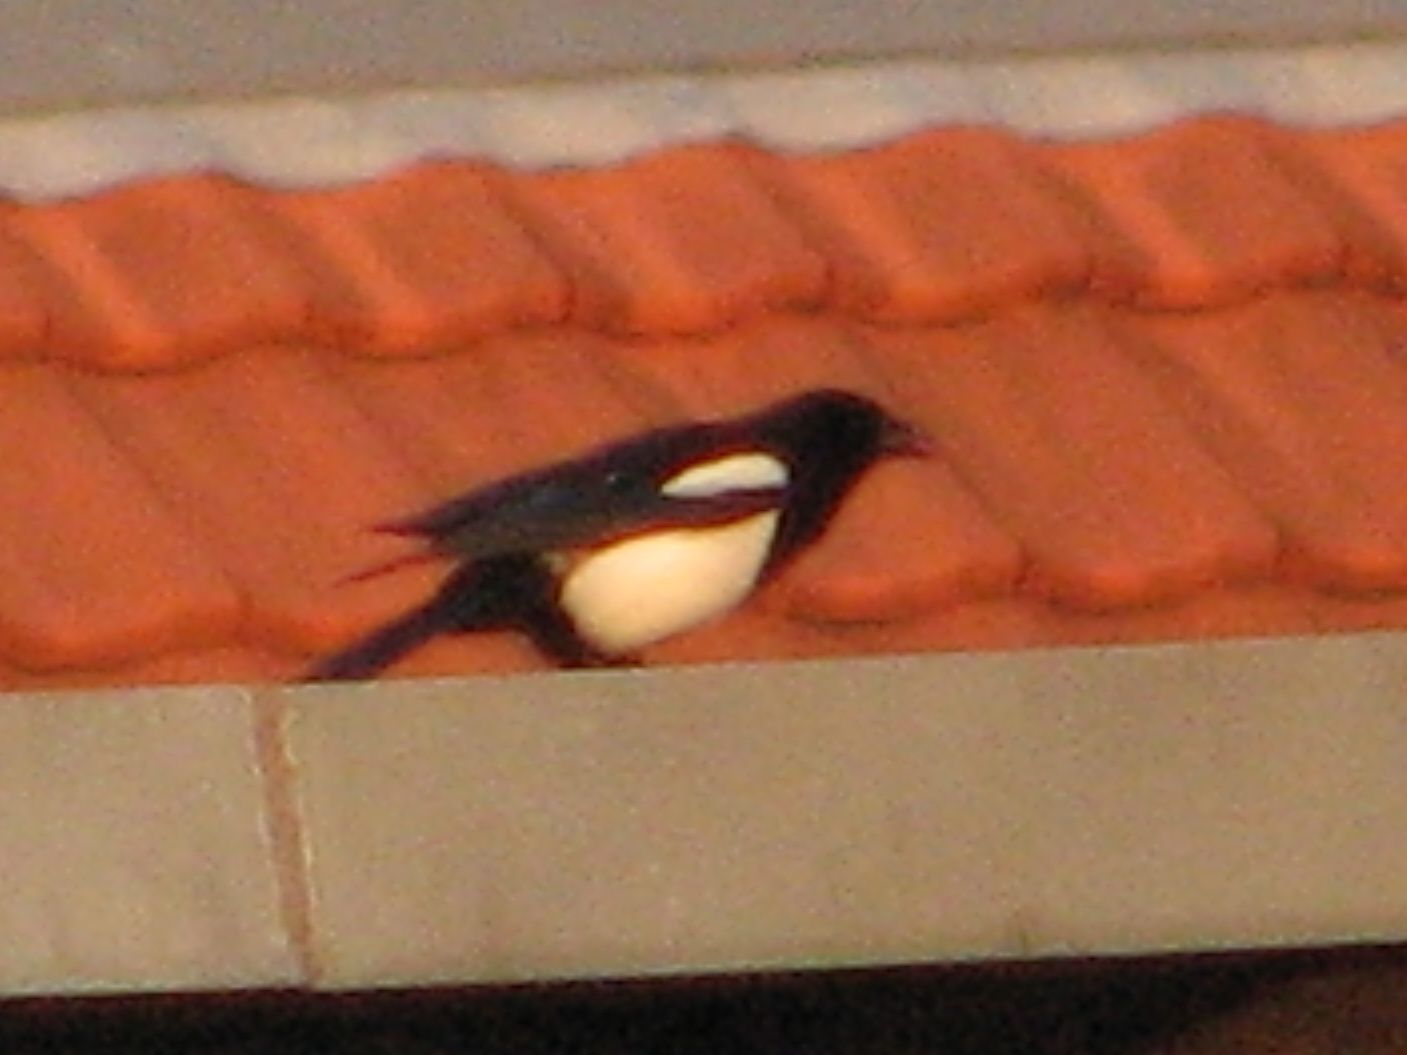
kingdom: Animalia
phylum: Chordata
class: Aves
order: Passeriformes
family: Corvidae
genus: Pica
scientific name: Pica pica
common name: Eurasian magpie
